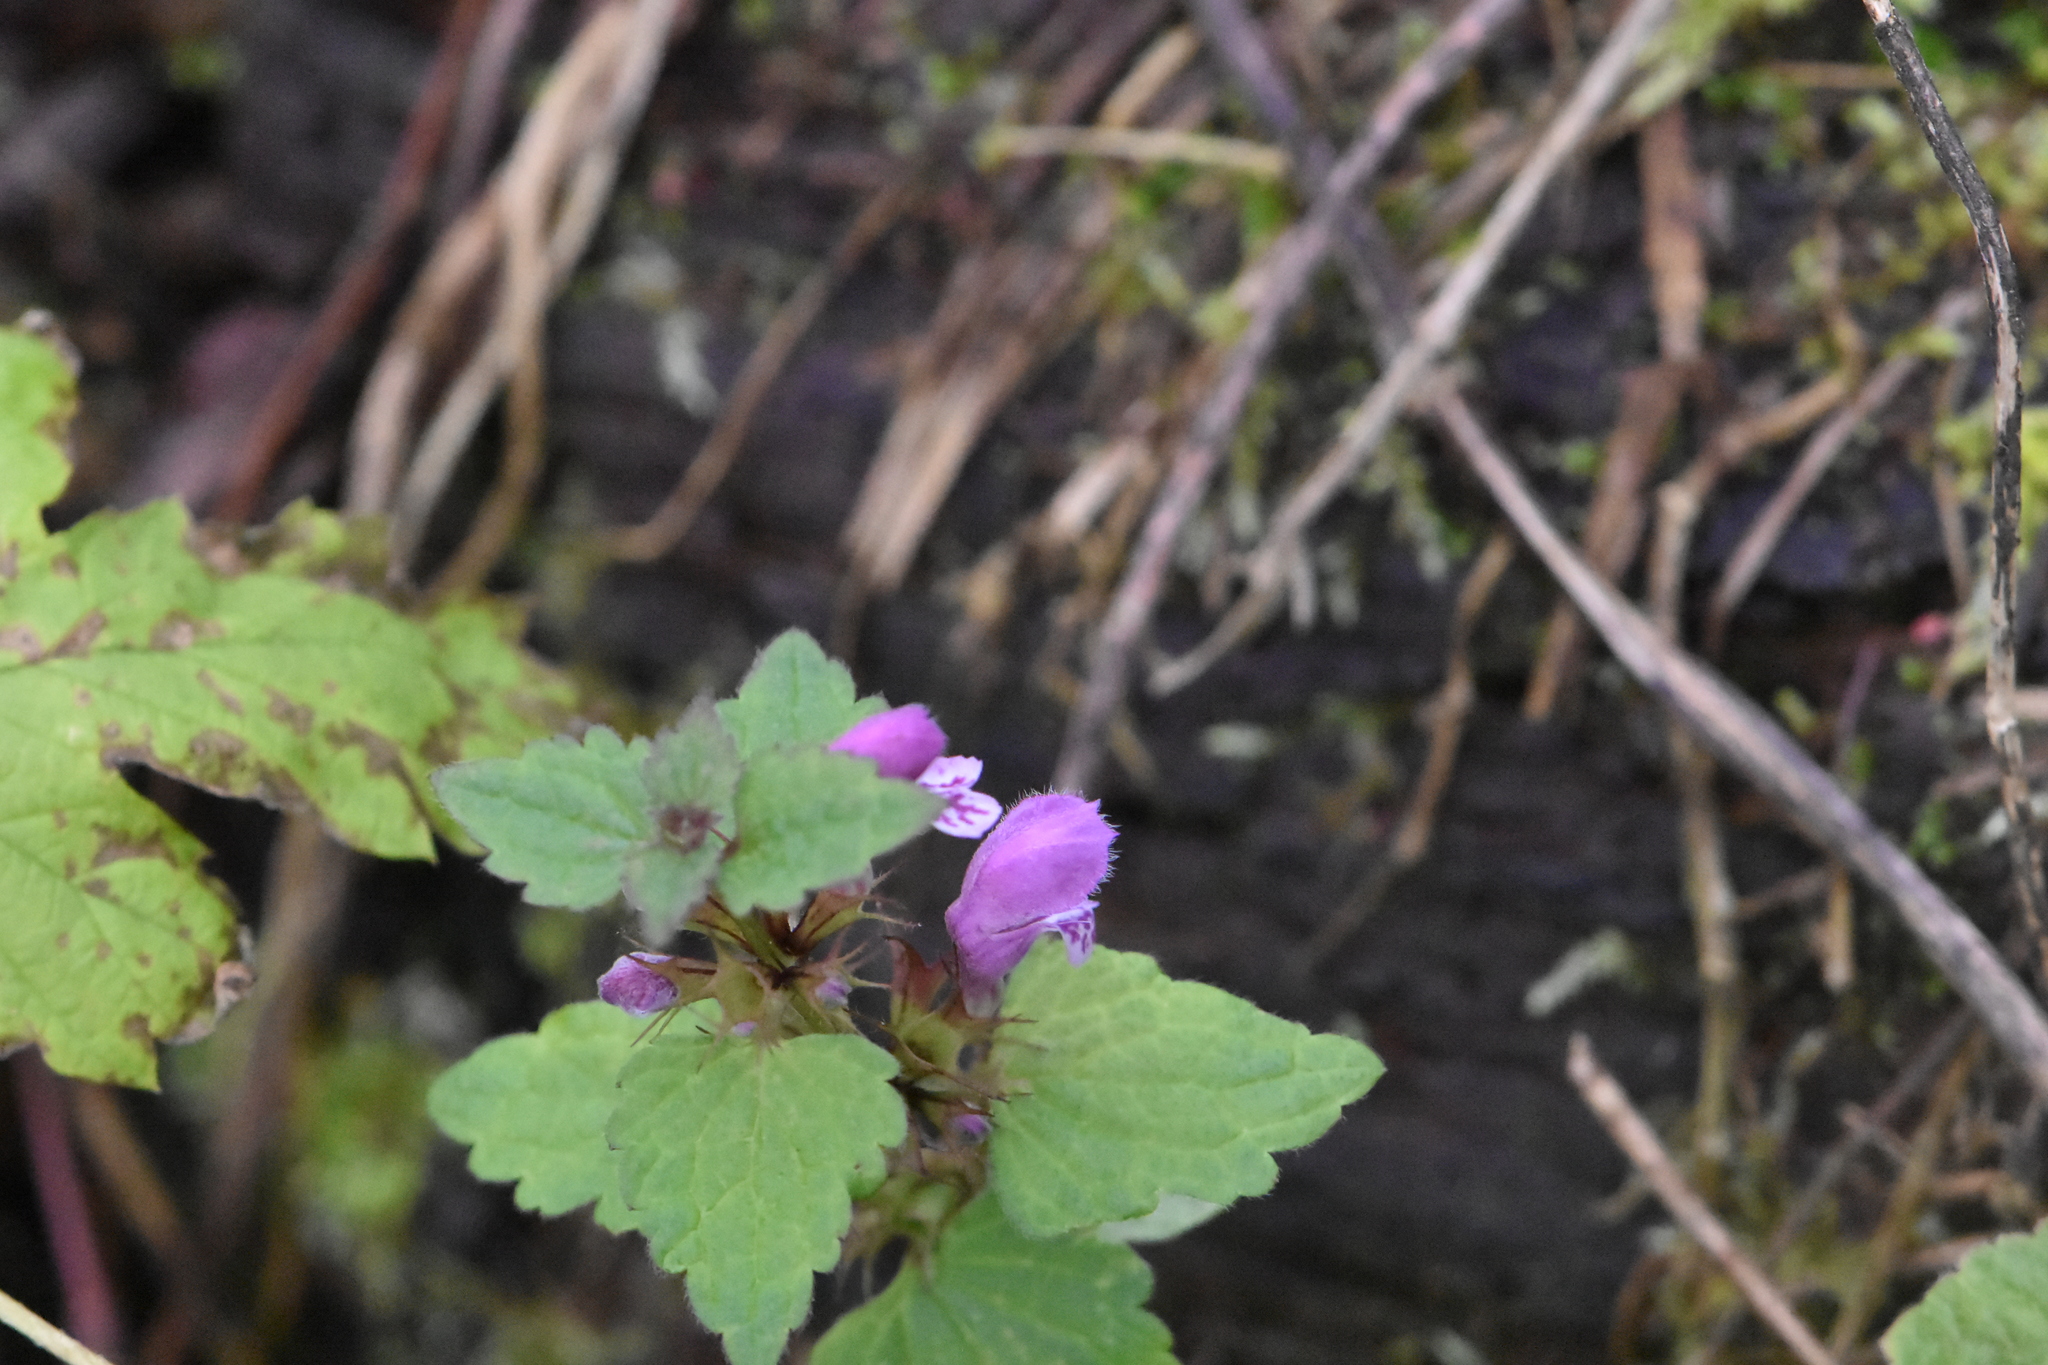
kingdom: Plantae
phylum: Tracheophyta
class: Magnoliopsida
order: Lamiales
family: Lamiaceae
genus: Lamium
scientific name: Lamium maculatum
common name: Spotted dead-nettle
